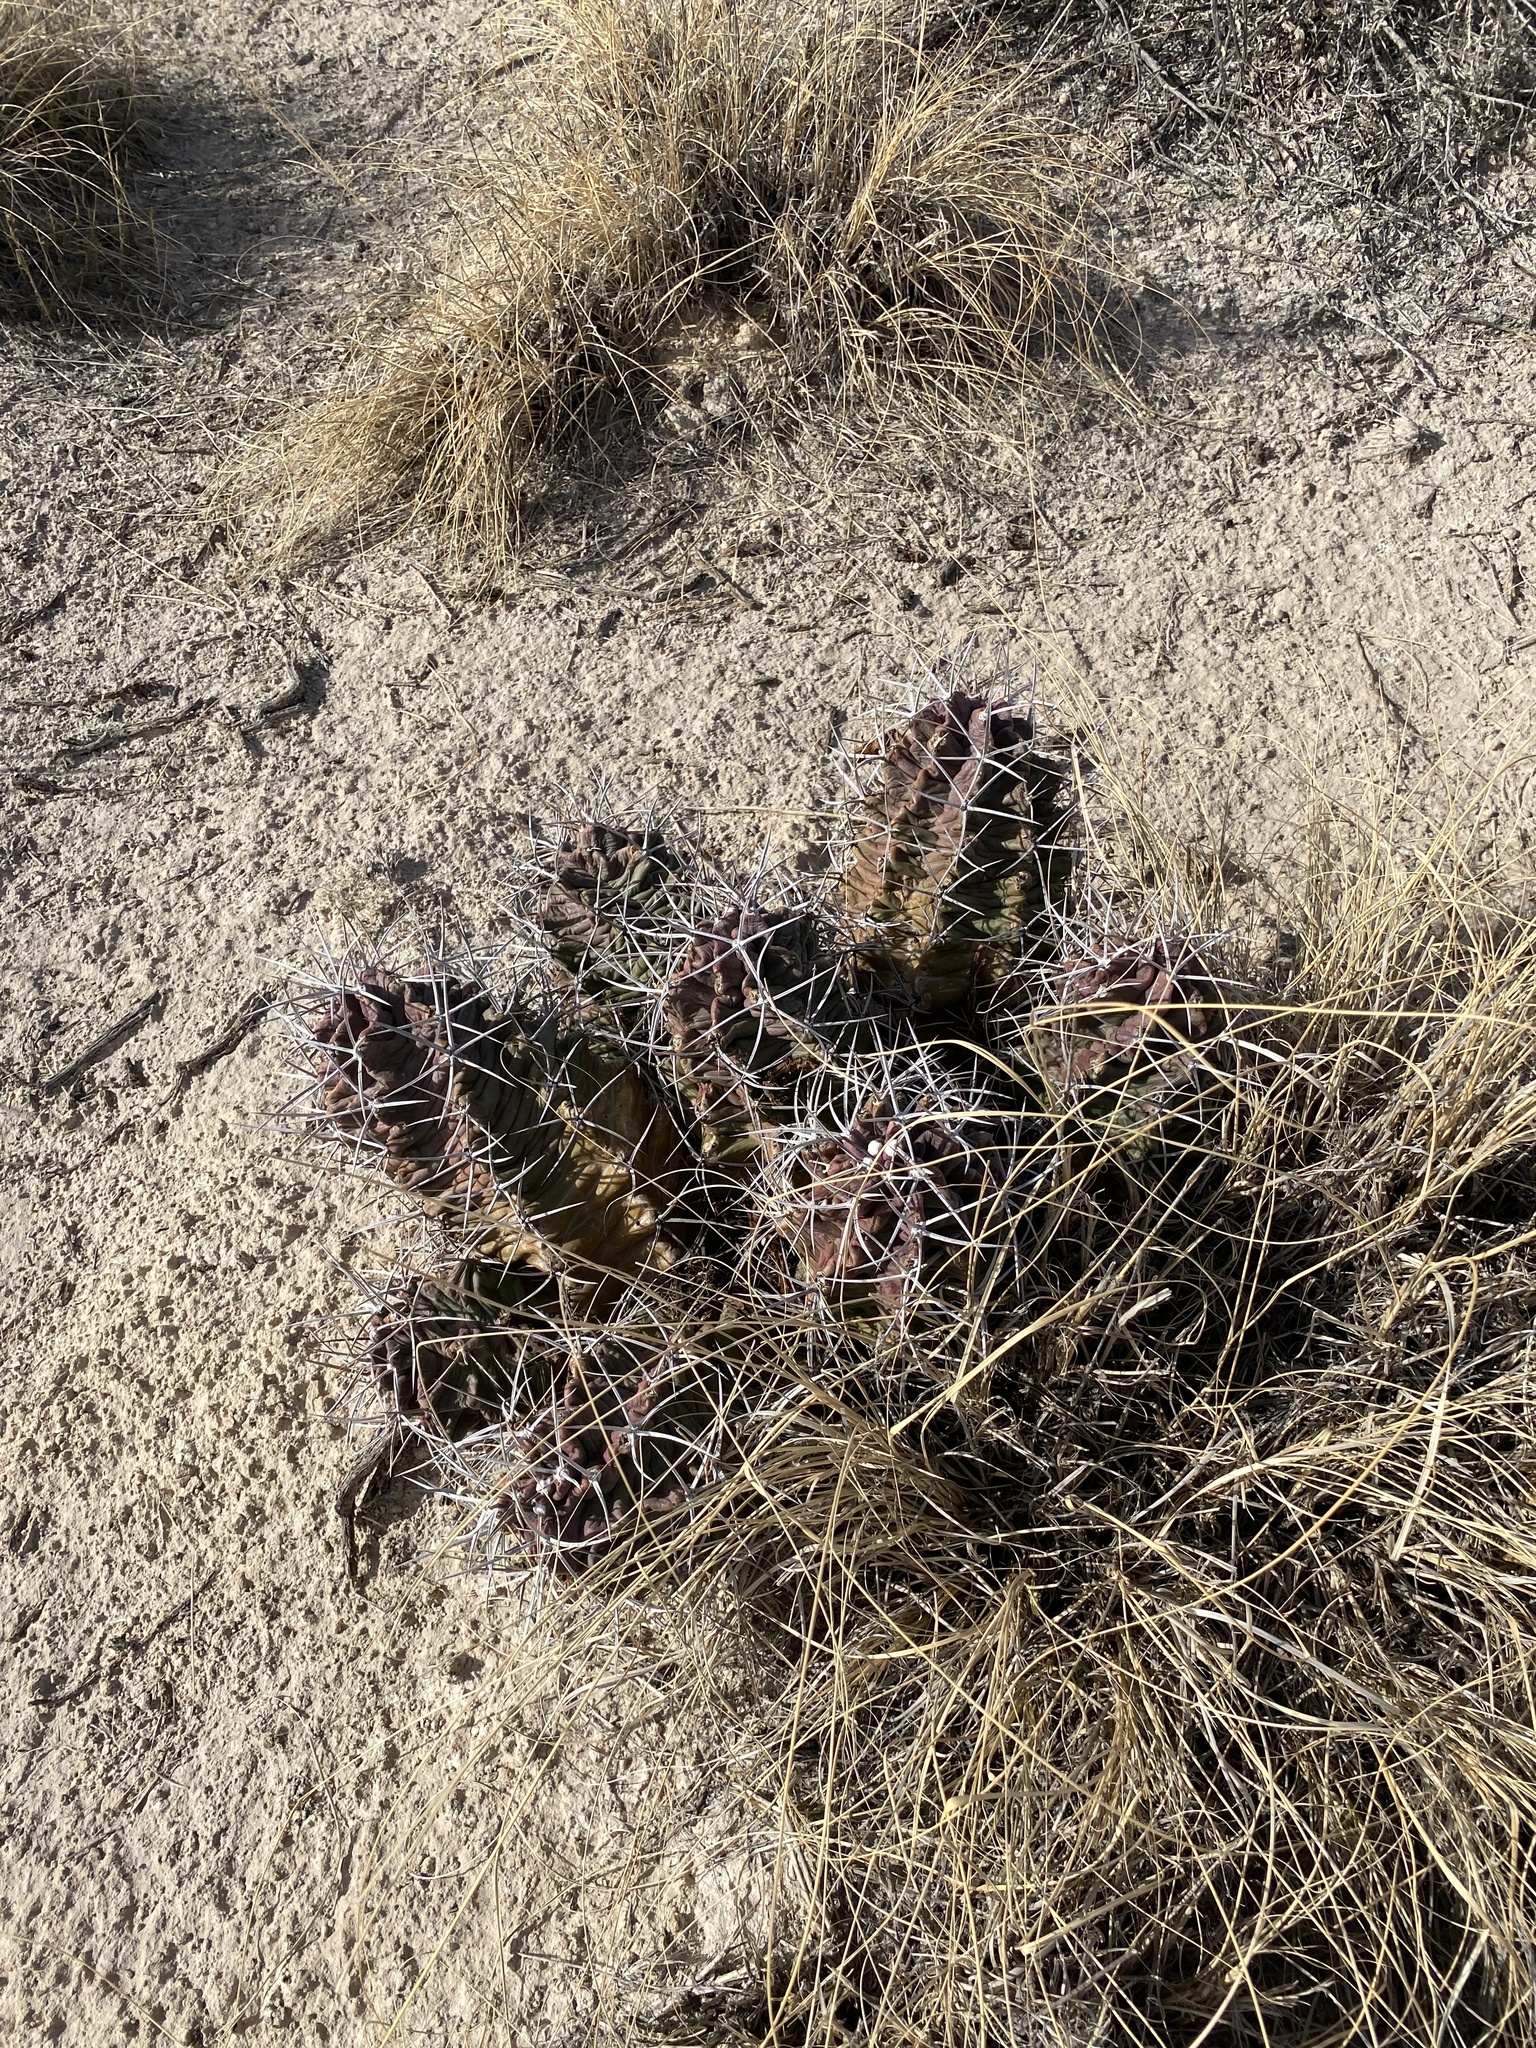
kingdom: Plantae
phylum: Tracheophyta
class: Magnoliopsida
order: Caryophyllales
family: Cactaceae
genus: Echinocereus
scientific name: Echinocereus triglochidiatus
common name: Claretcup hedgehog
